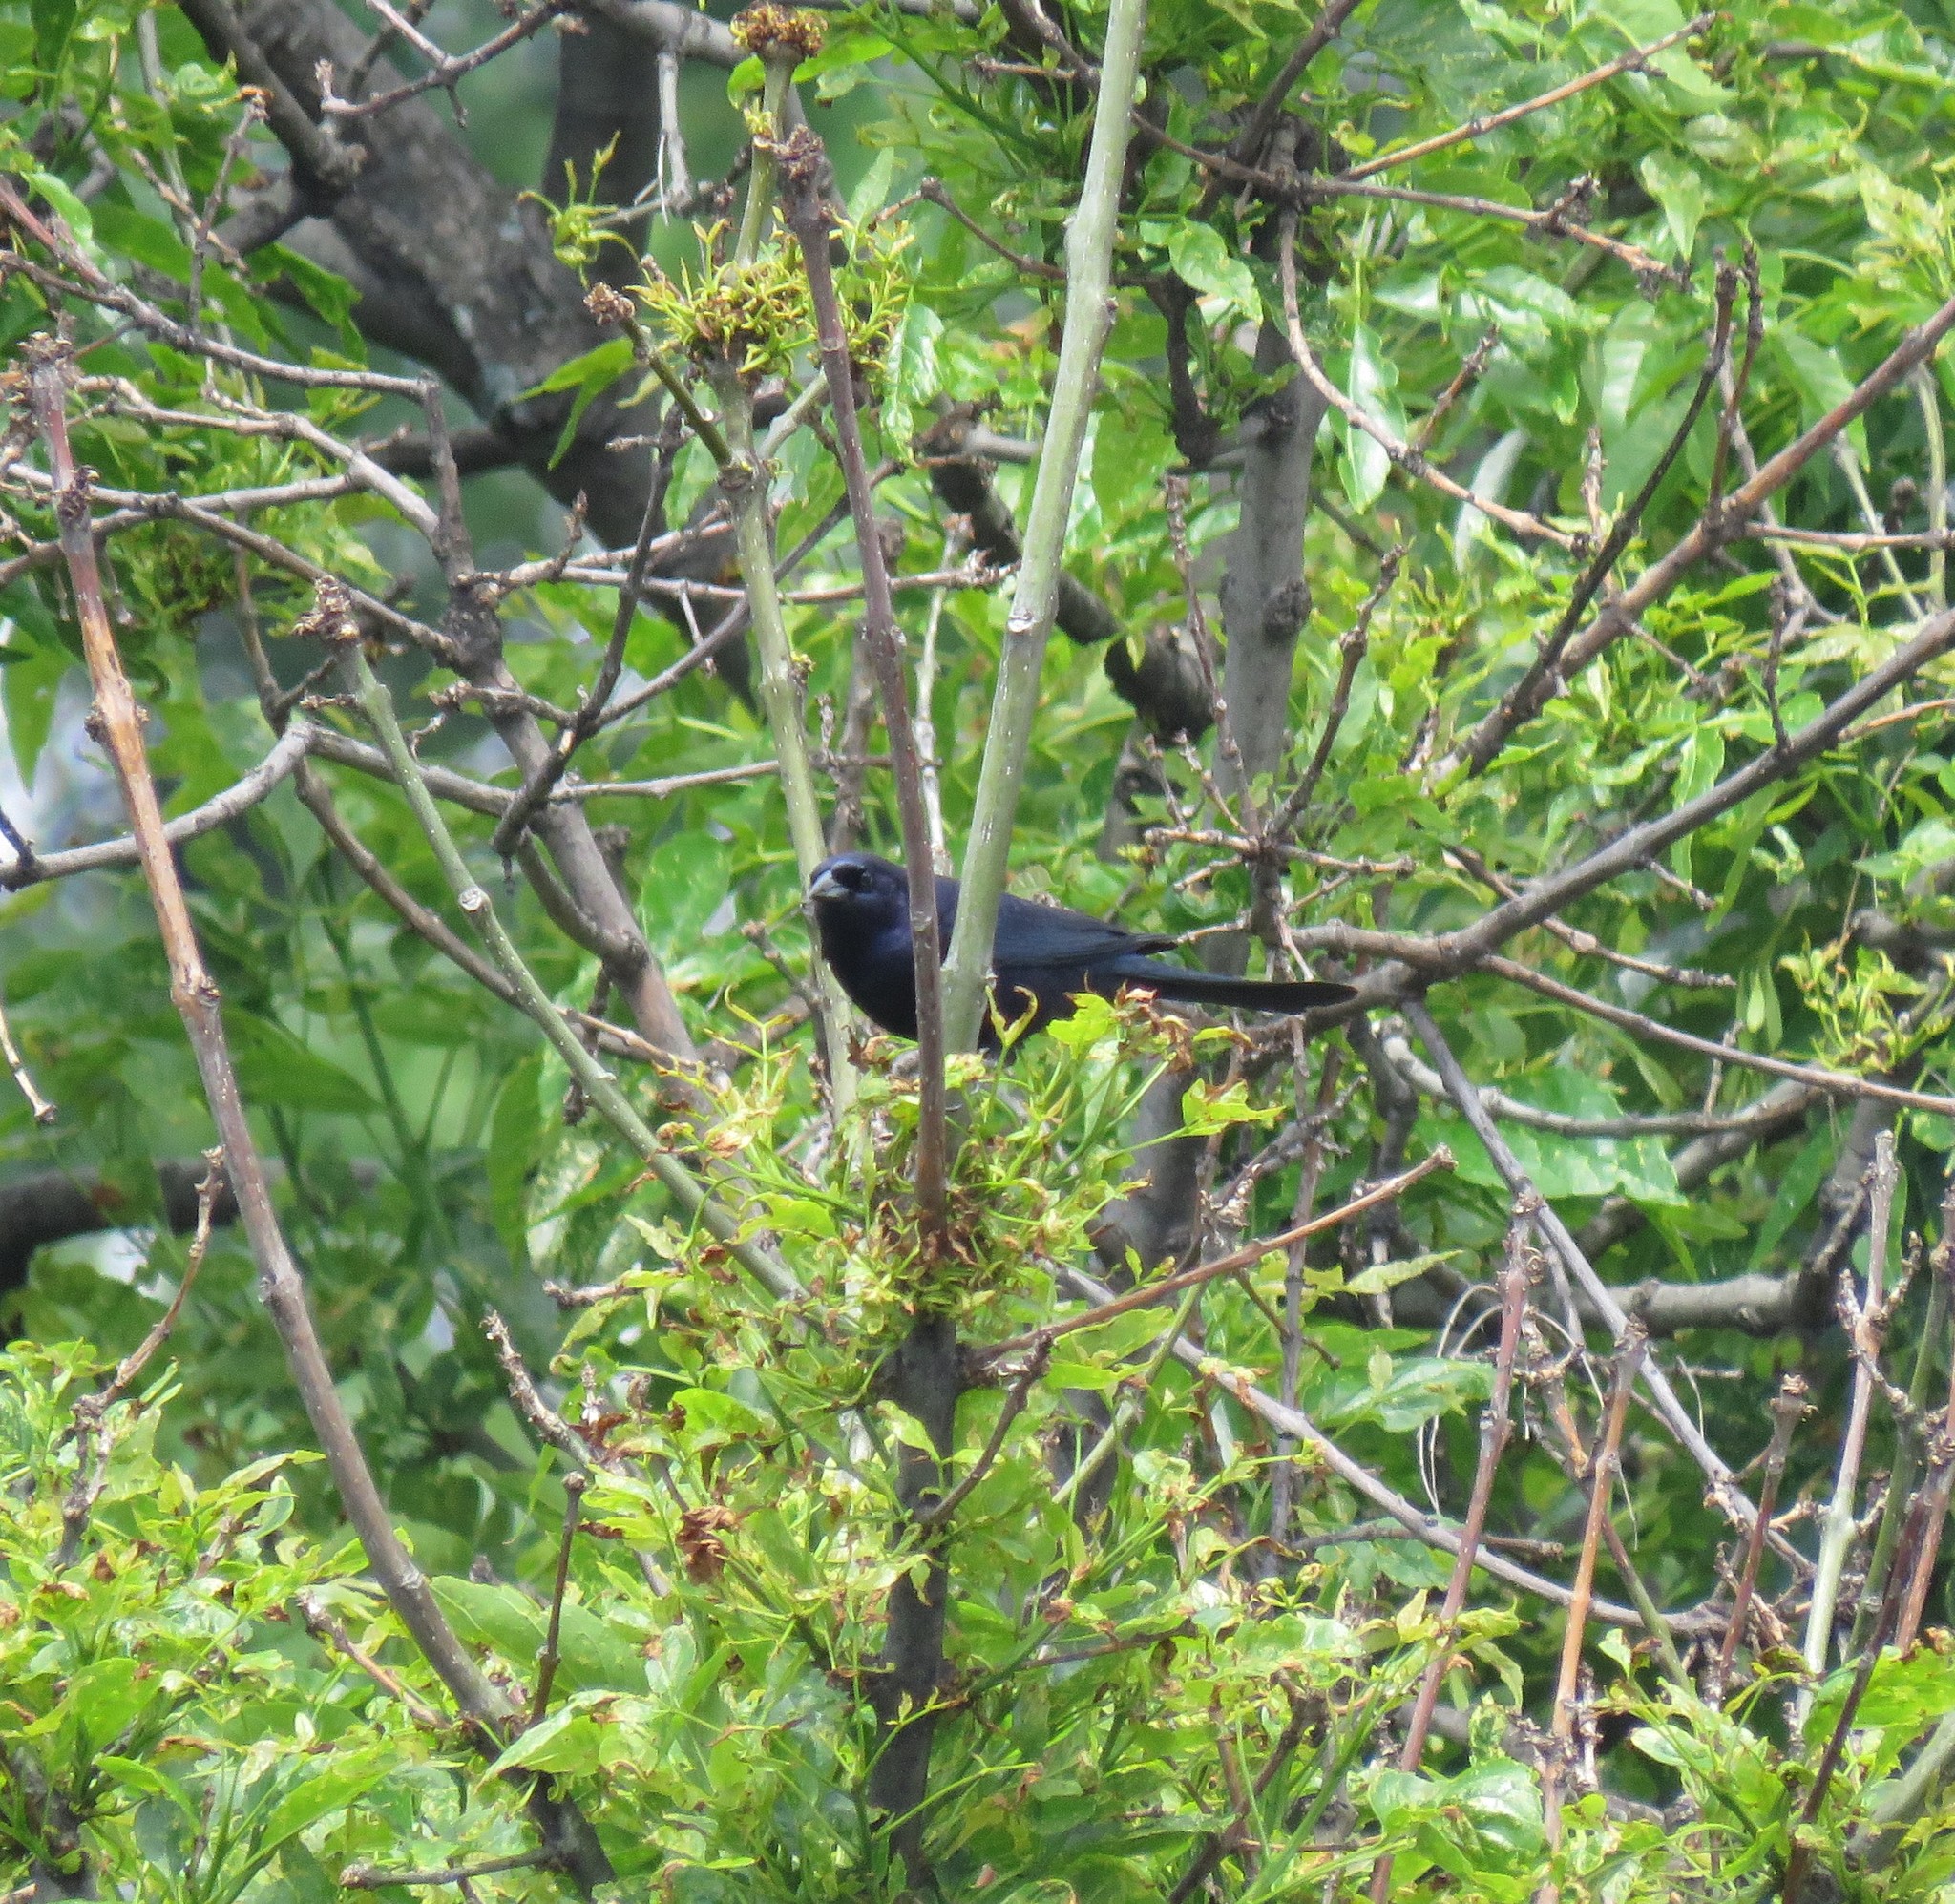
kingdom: Animalia
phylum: Chordata
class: Aves
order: Passeriformes
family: Icteridae
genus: Molothrus
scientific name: Molothrus bonariensis
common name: Shiny cowbird
